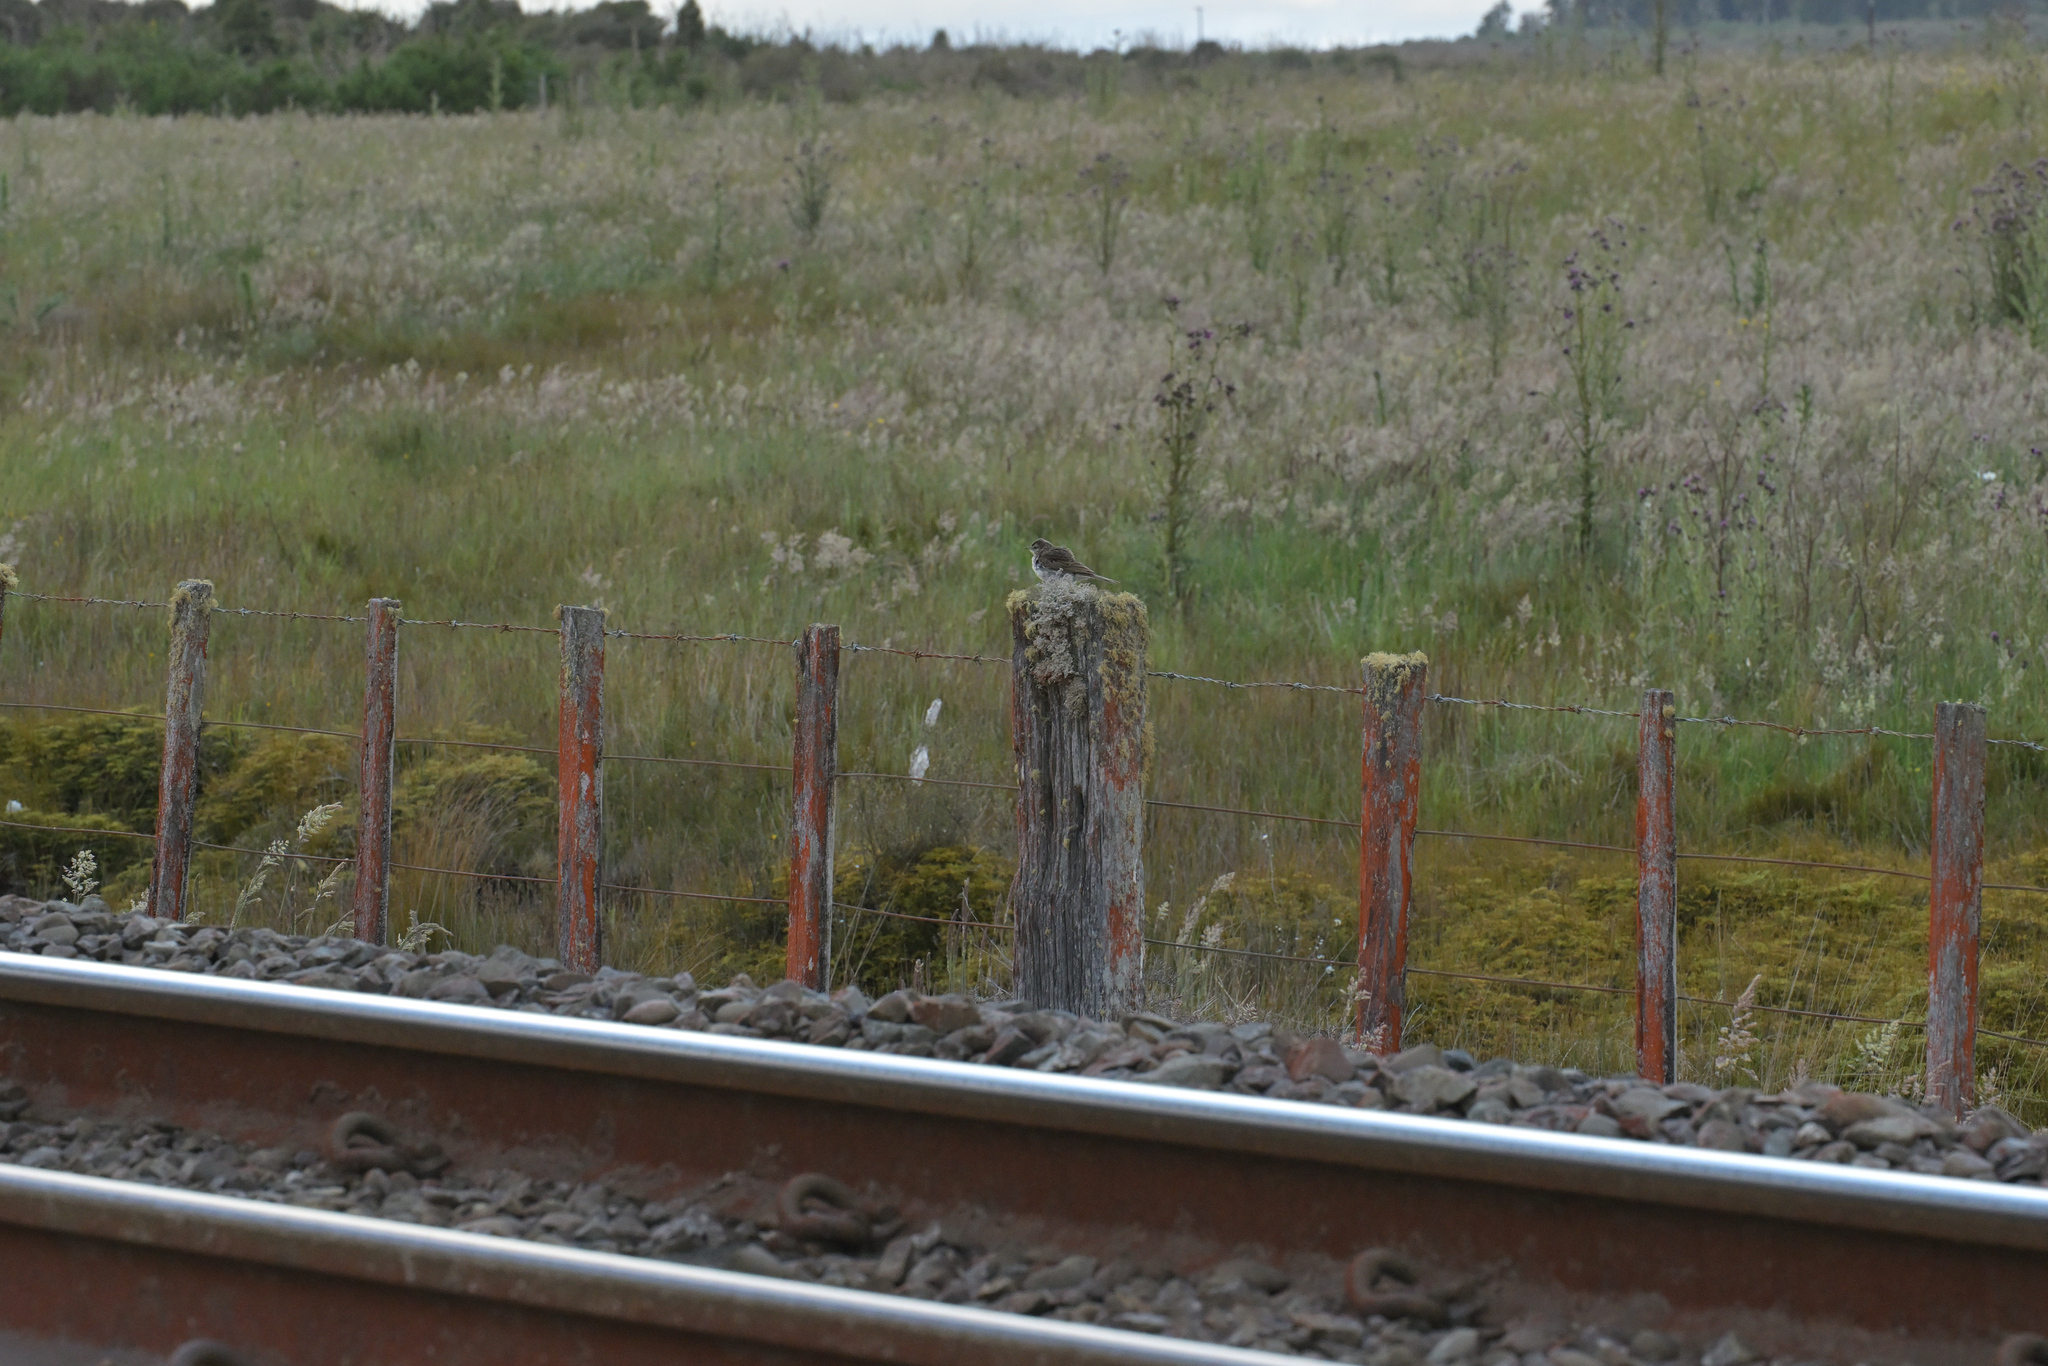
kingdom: Animalia
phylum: Chordata
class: Aves
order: Passeriformes
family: Motacillidae
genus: Anthus
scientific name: Anthus novaeseelandiae
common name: New zealand pipit
